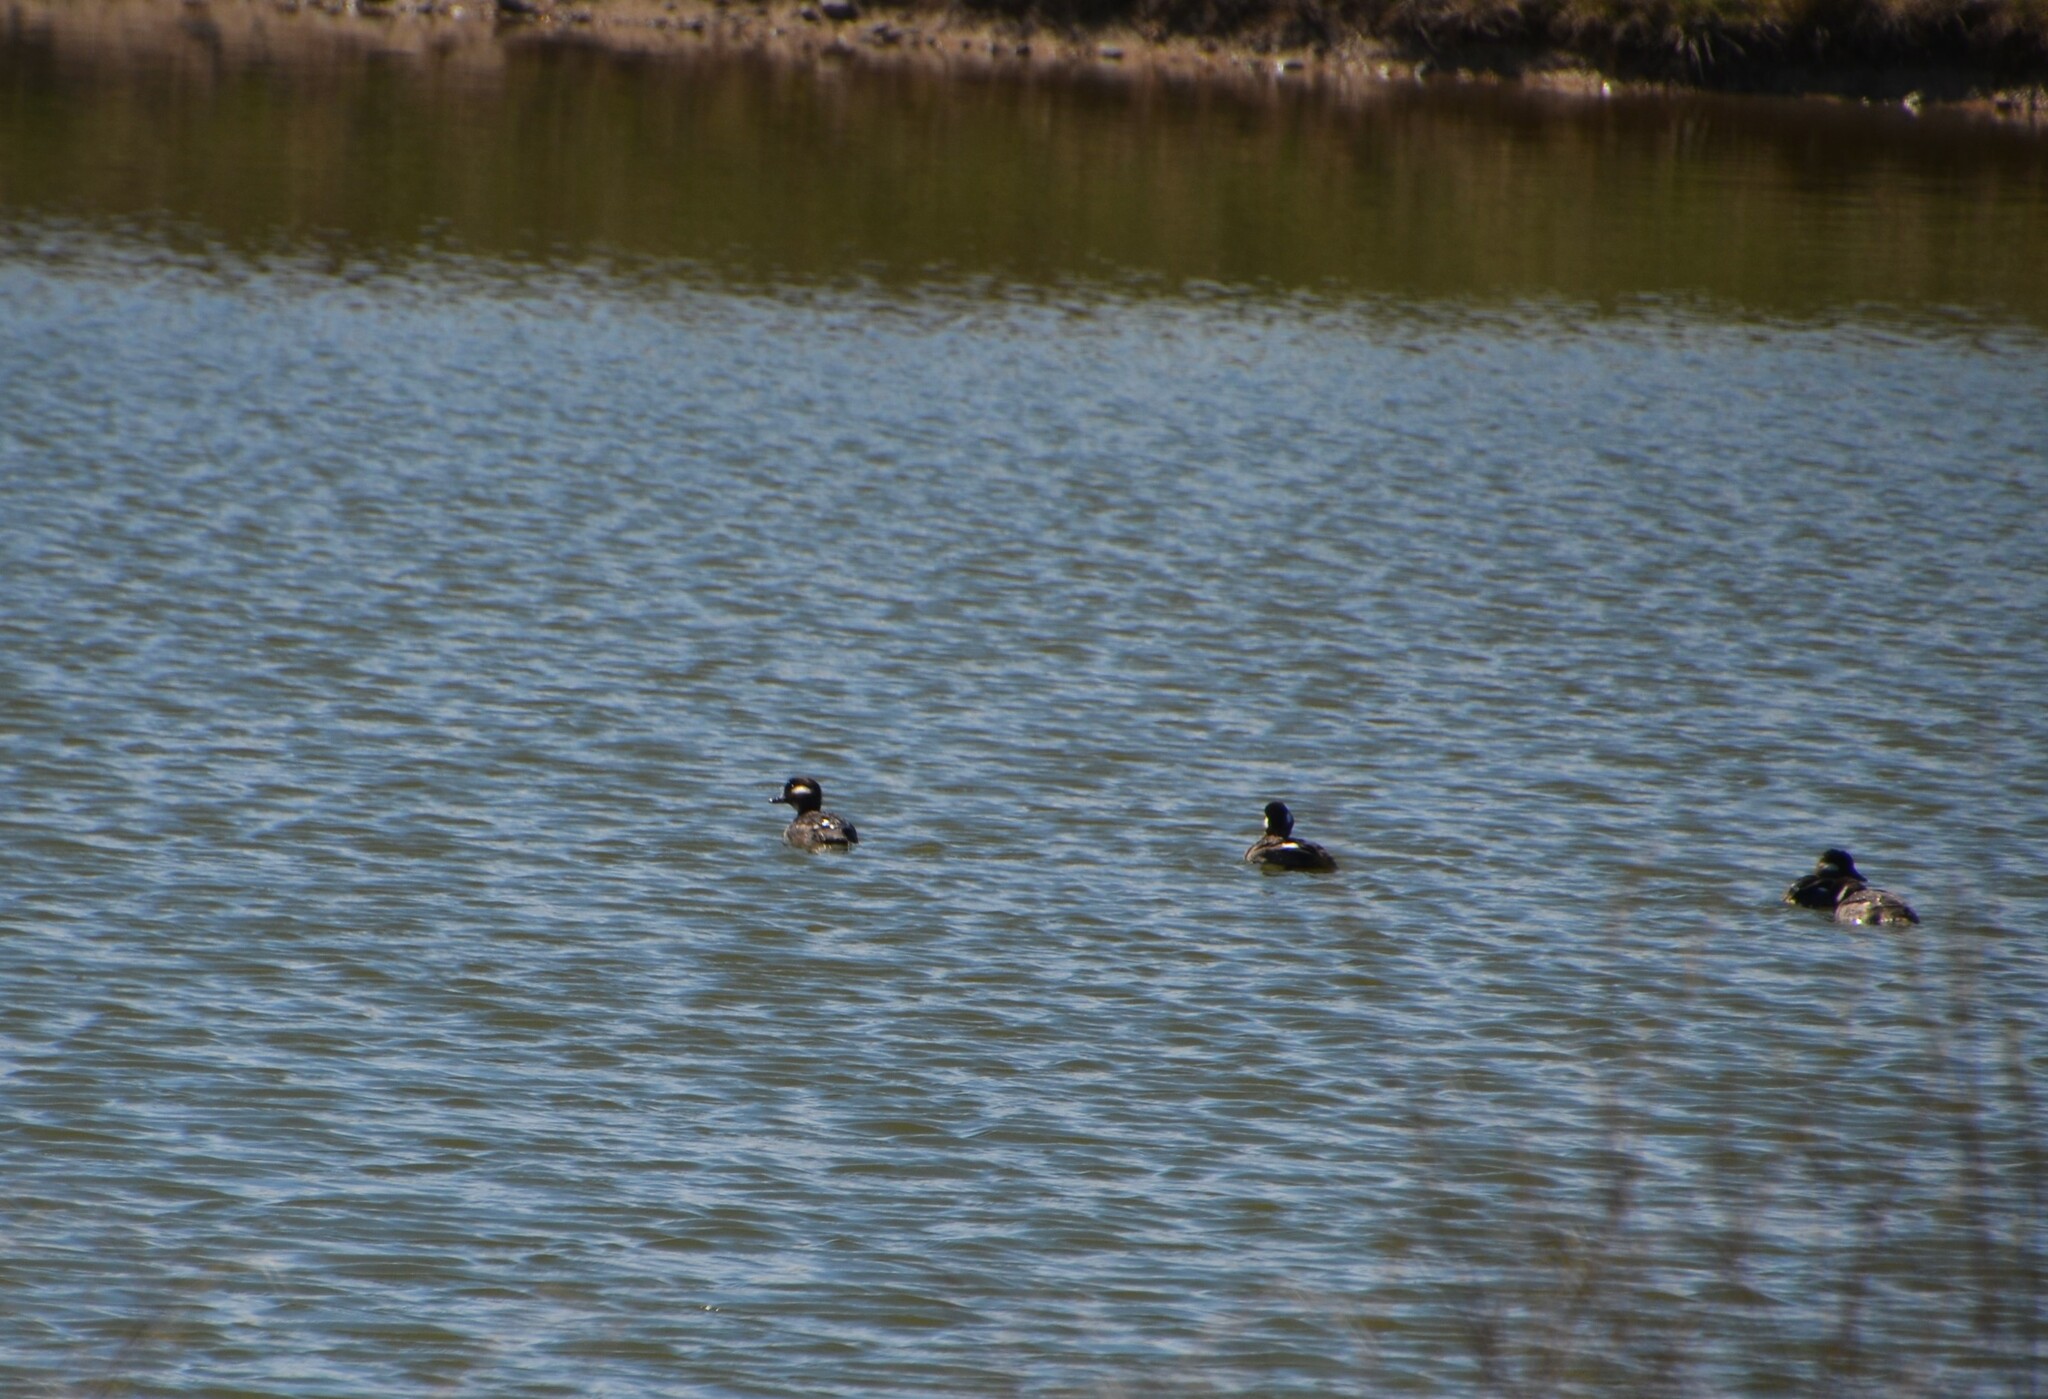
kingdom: Animalia
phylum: Chordata
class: Aves
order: Anseriformes
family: Anatidae
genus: Bucephala
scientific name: Bucephala albeola
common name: Bufflehead
